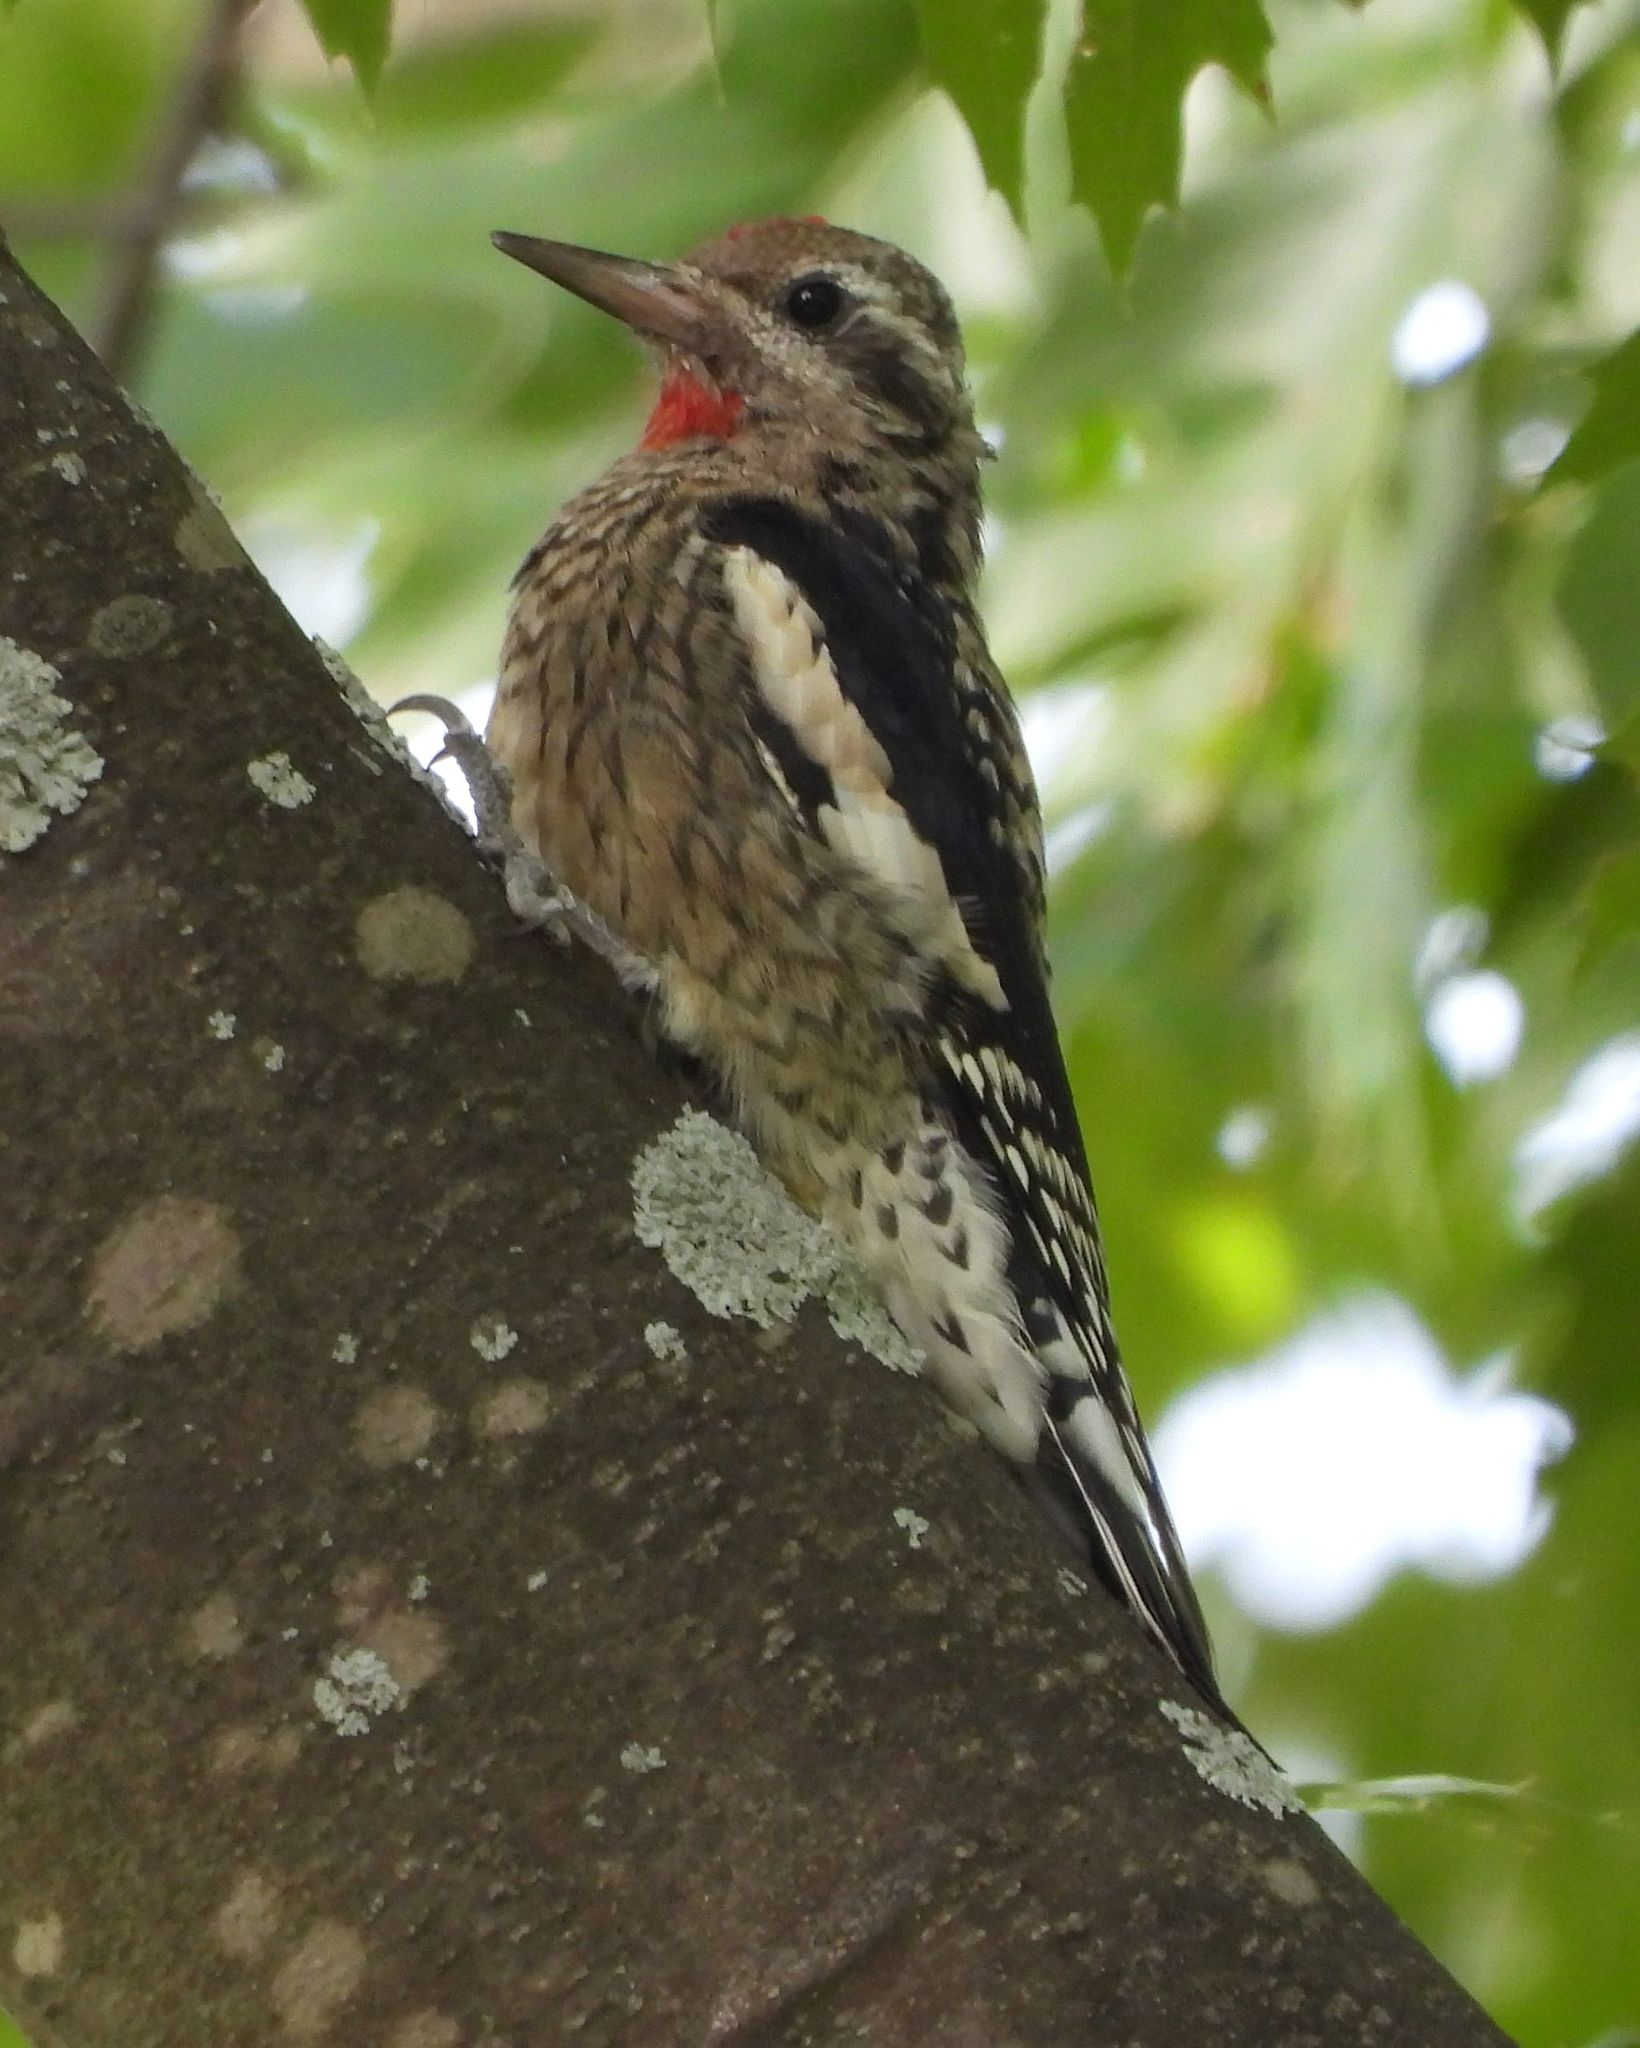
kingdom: Animalia
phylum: Chordata
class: Aves
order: Piciformes
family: Picidae
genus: Sphyrapicus
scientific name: Sphyrapicus varius
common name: Yellow-bellied sapsucker
